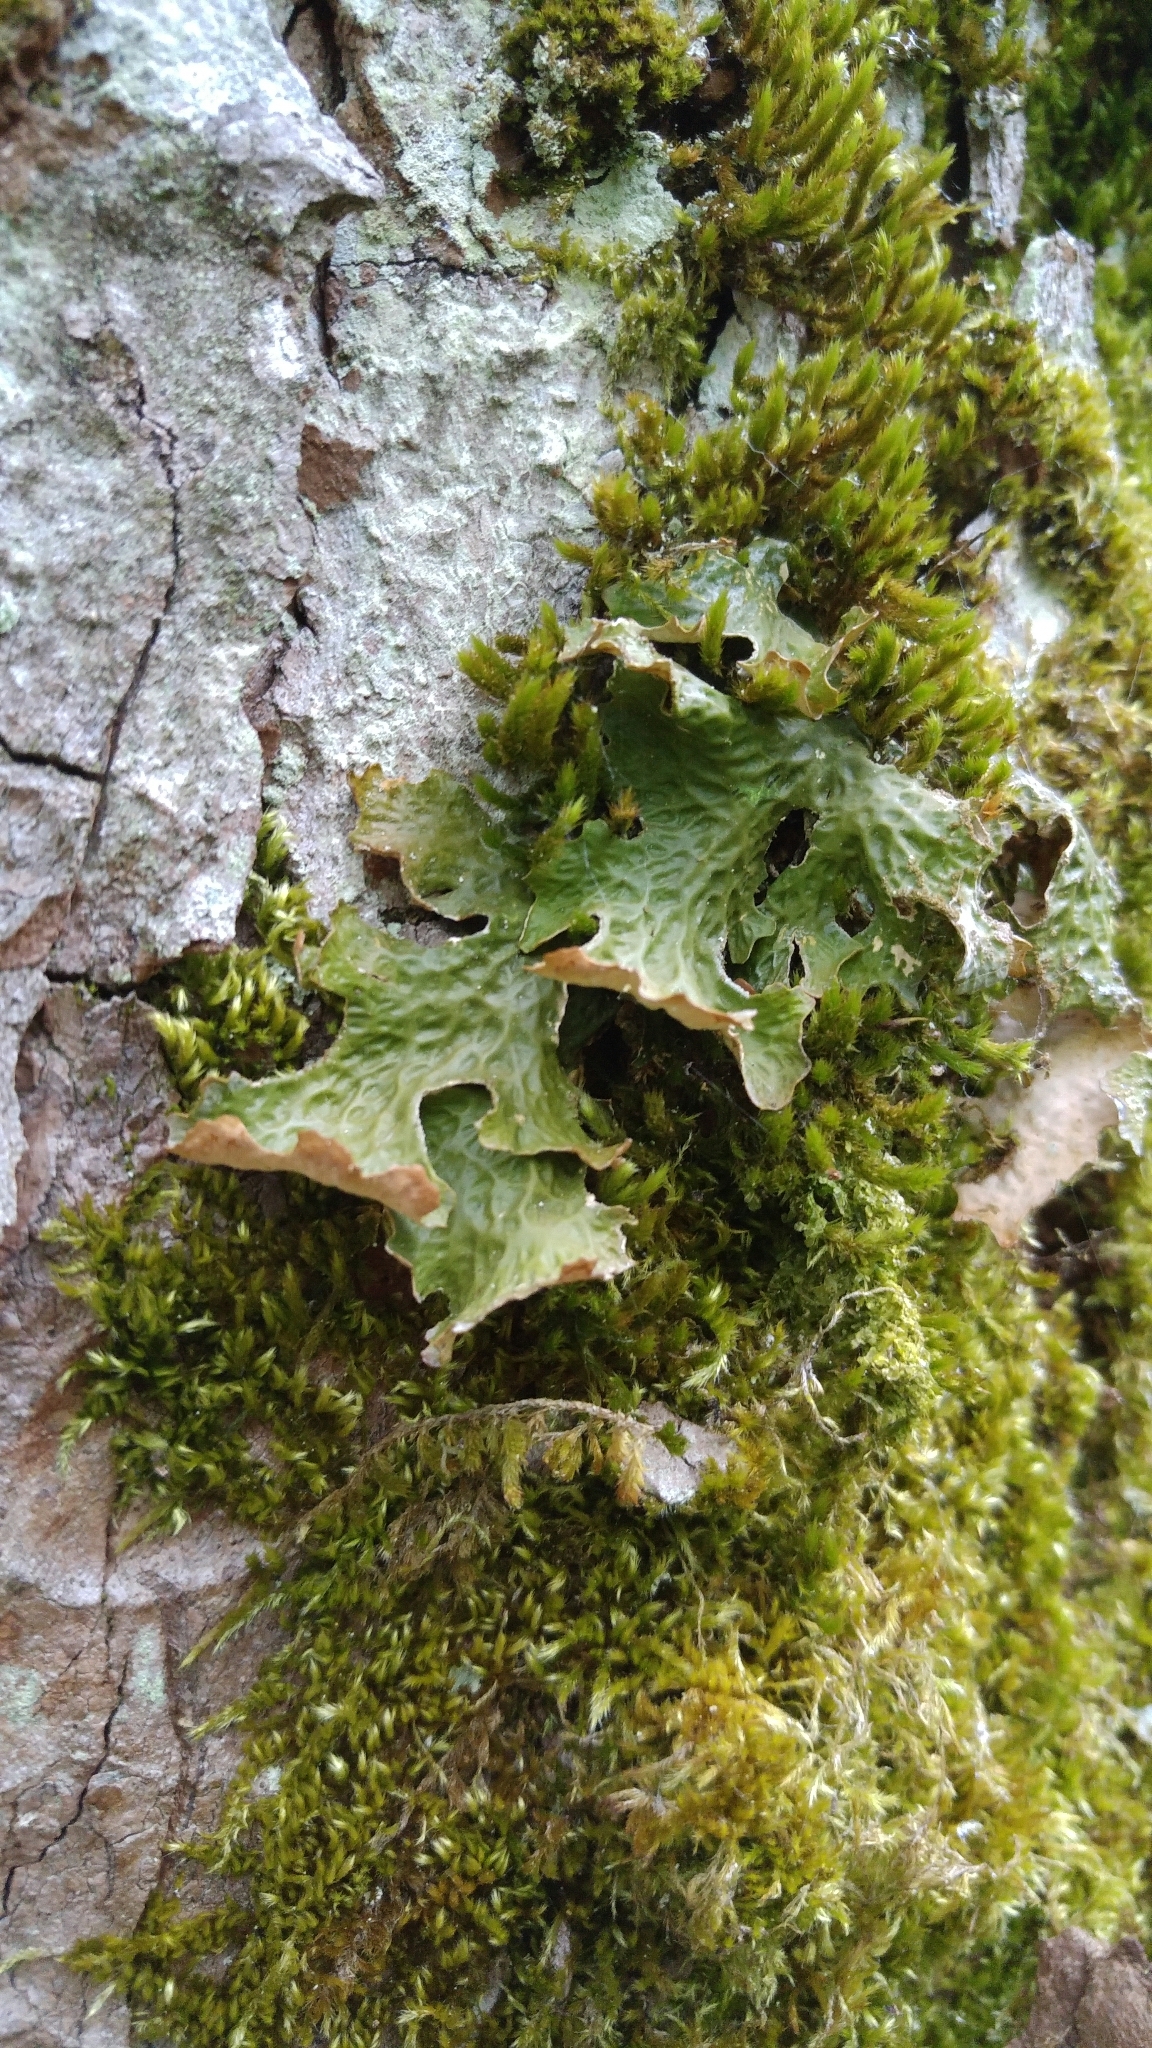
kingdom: Fungi
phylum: Ascomycota
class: Lecanoromycetes
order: Peltigerales
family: Lobariaceae
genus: Lobaria
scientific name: Lobaria pulmonaria
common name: Lungwort
